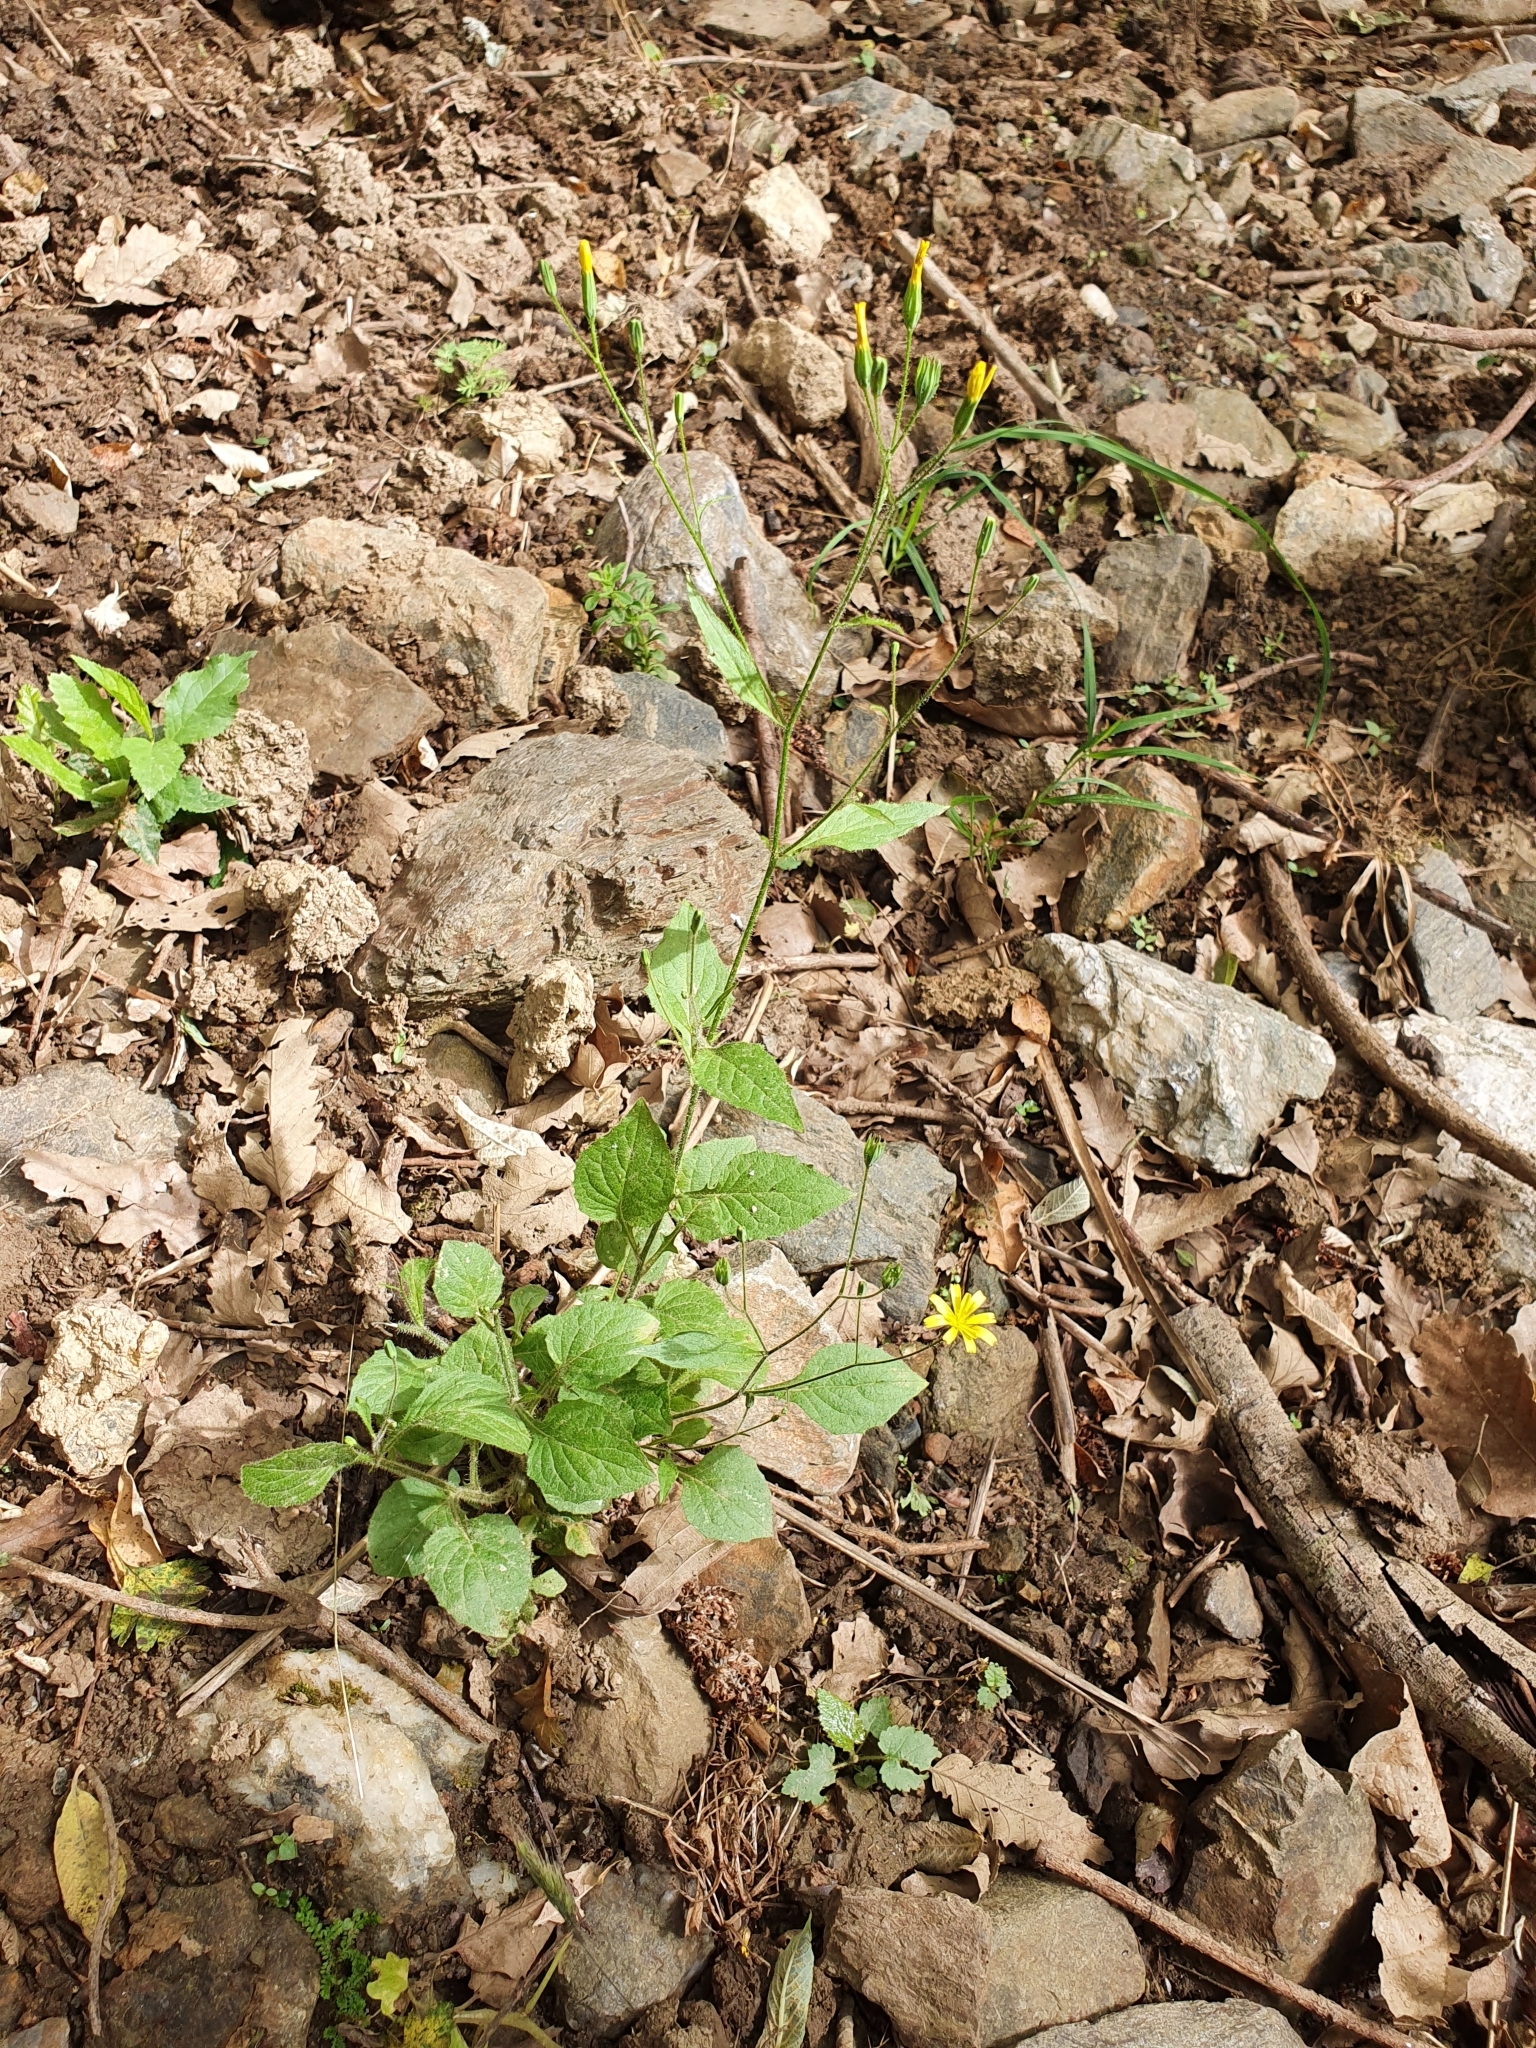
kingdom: Plantae
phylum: Tracheophyta
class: Magnoliopsida
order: Asterales
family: Asteraceae
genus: Lapsana
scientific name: Lapsana communis
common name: Nipplewort
